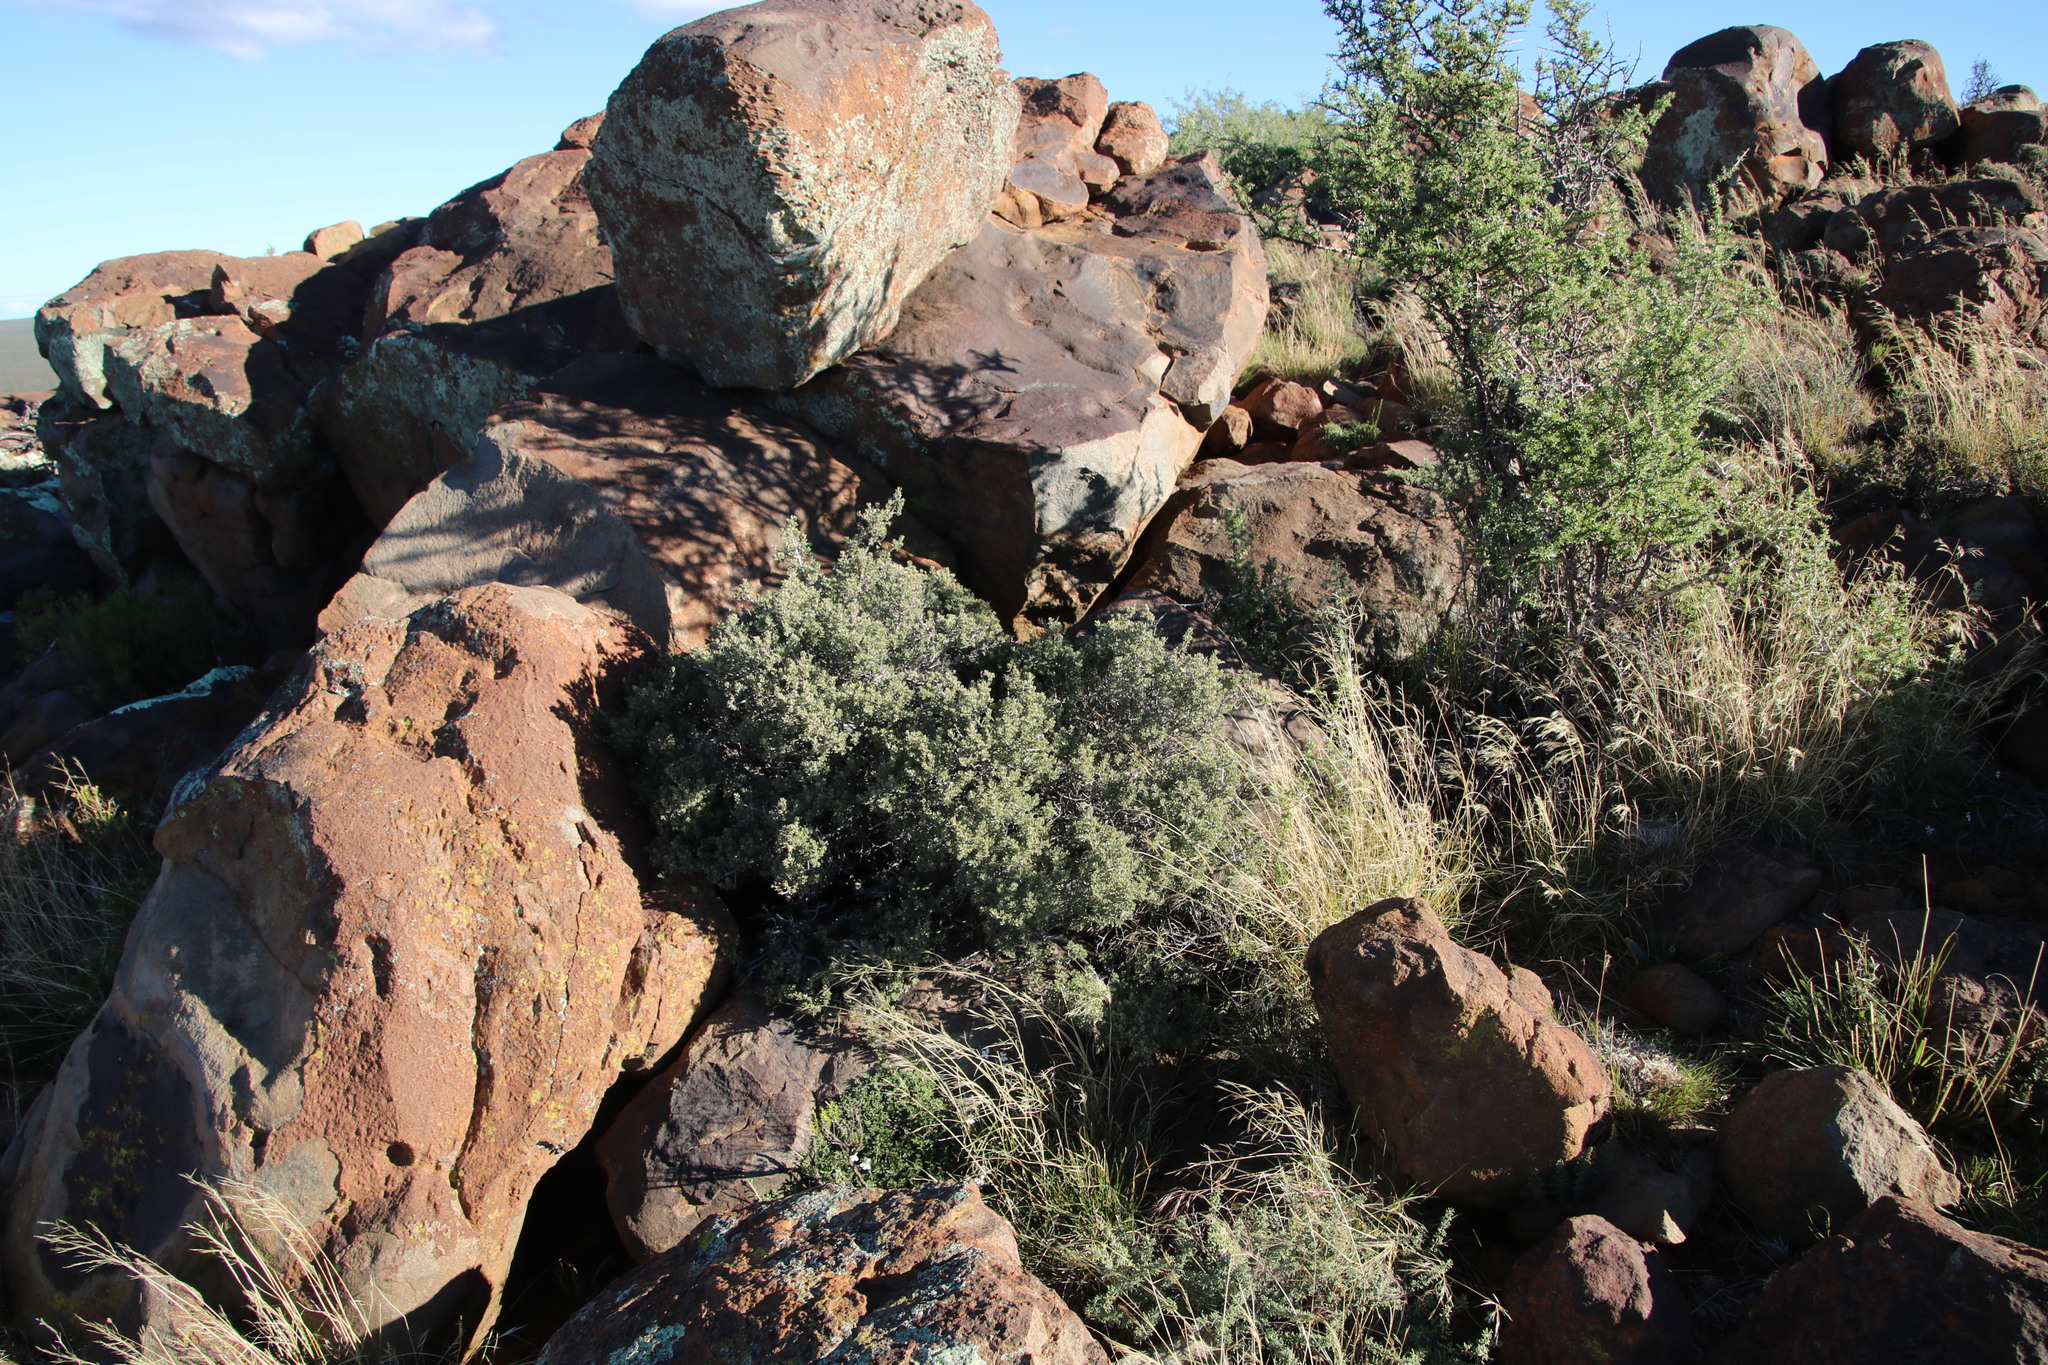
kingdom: Plantae
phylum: Tracheophyta
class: Magnoliopsida
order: Ericales
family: Ebenaceae
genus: Diospyros
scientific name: Diospyros pubescens
